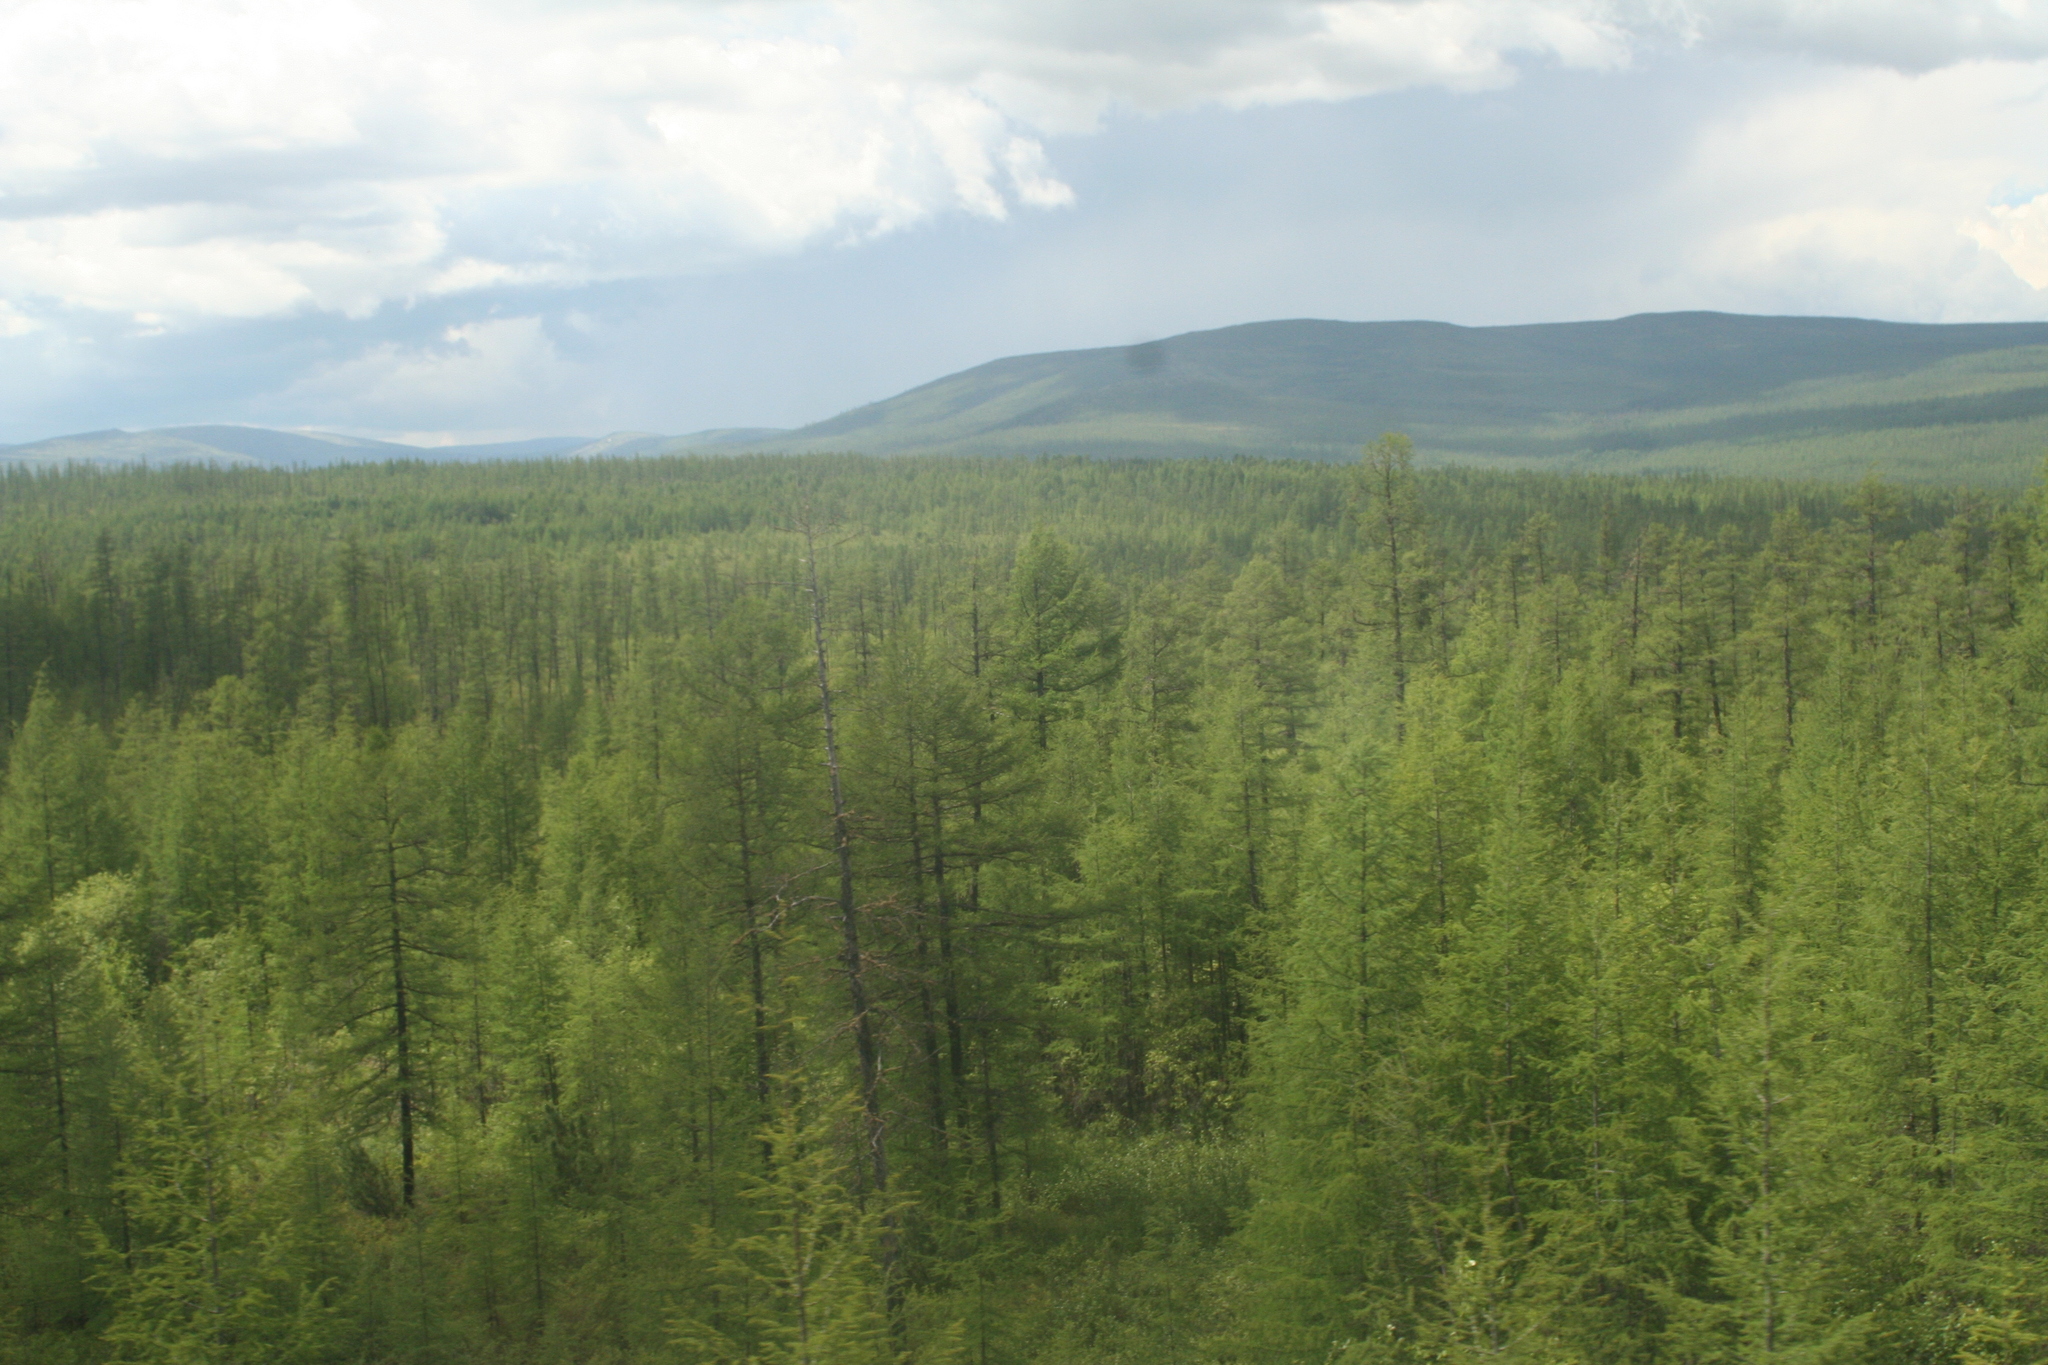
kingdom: Plantae
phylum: Tracheophyta
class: Pinopsida
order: Pinales
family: Pinaceae
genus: Larix
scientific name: Larix gmelinii
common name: Dahurian larch
